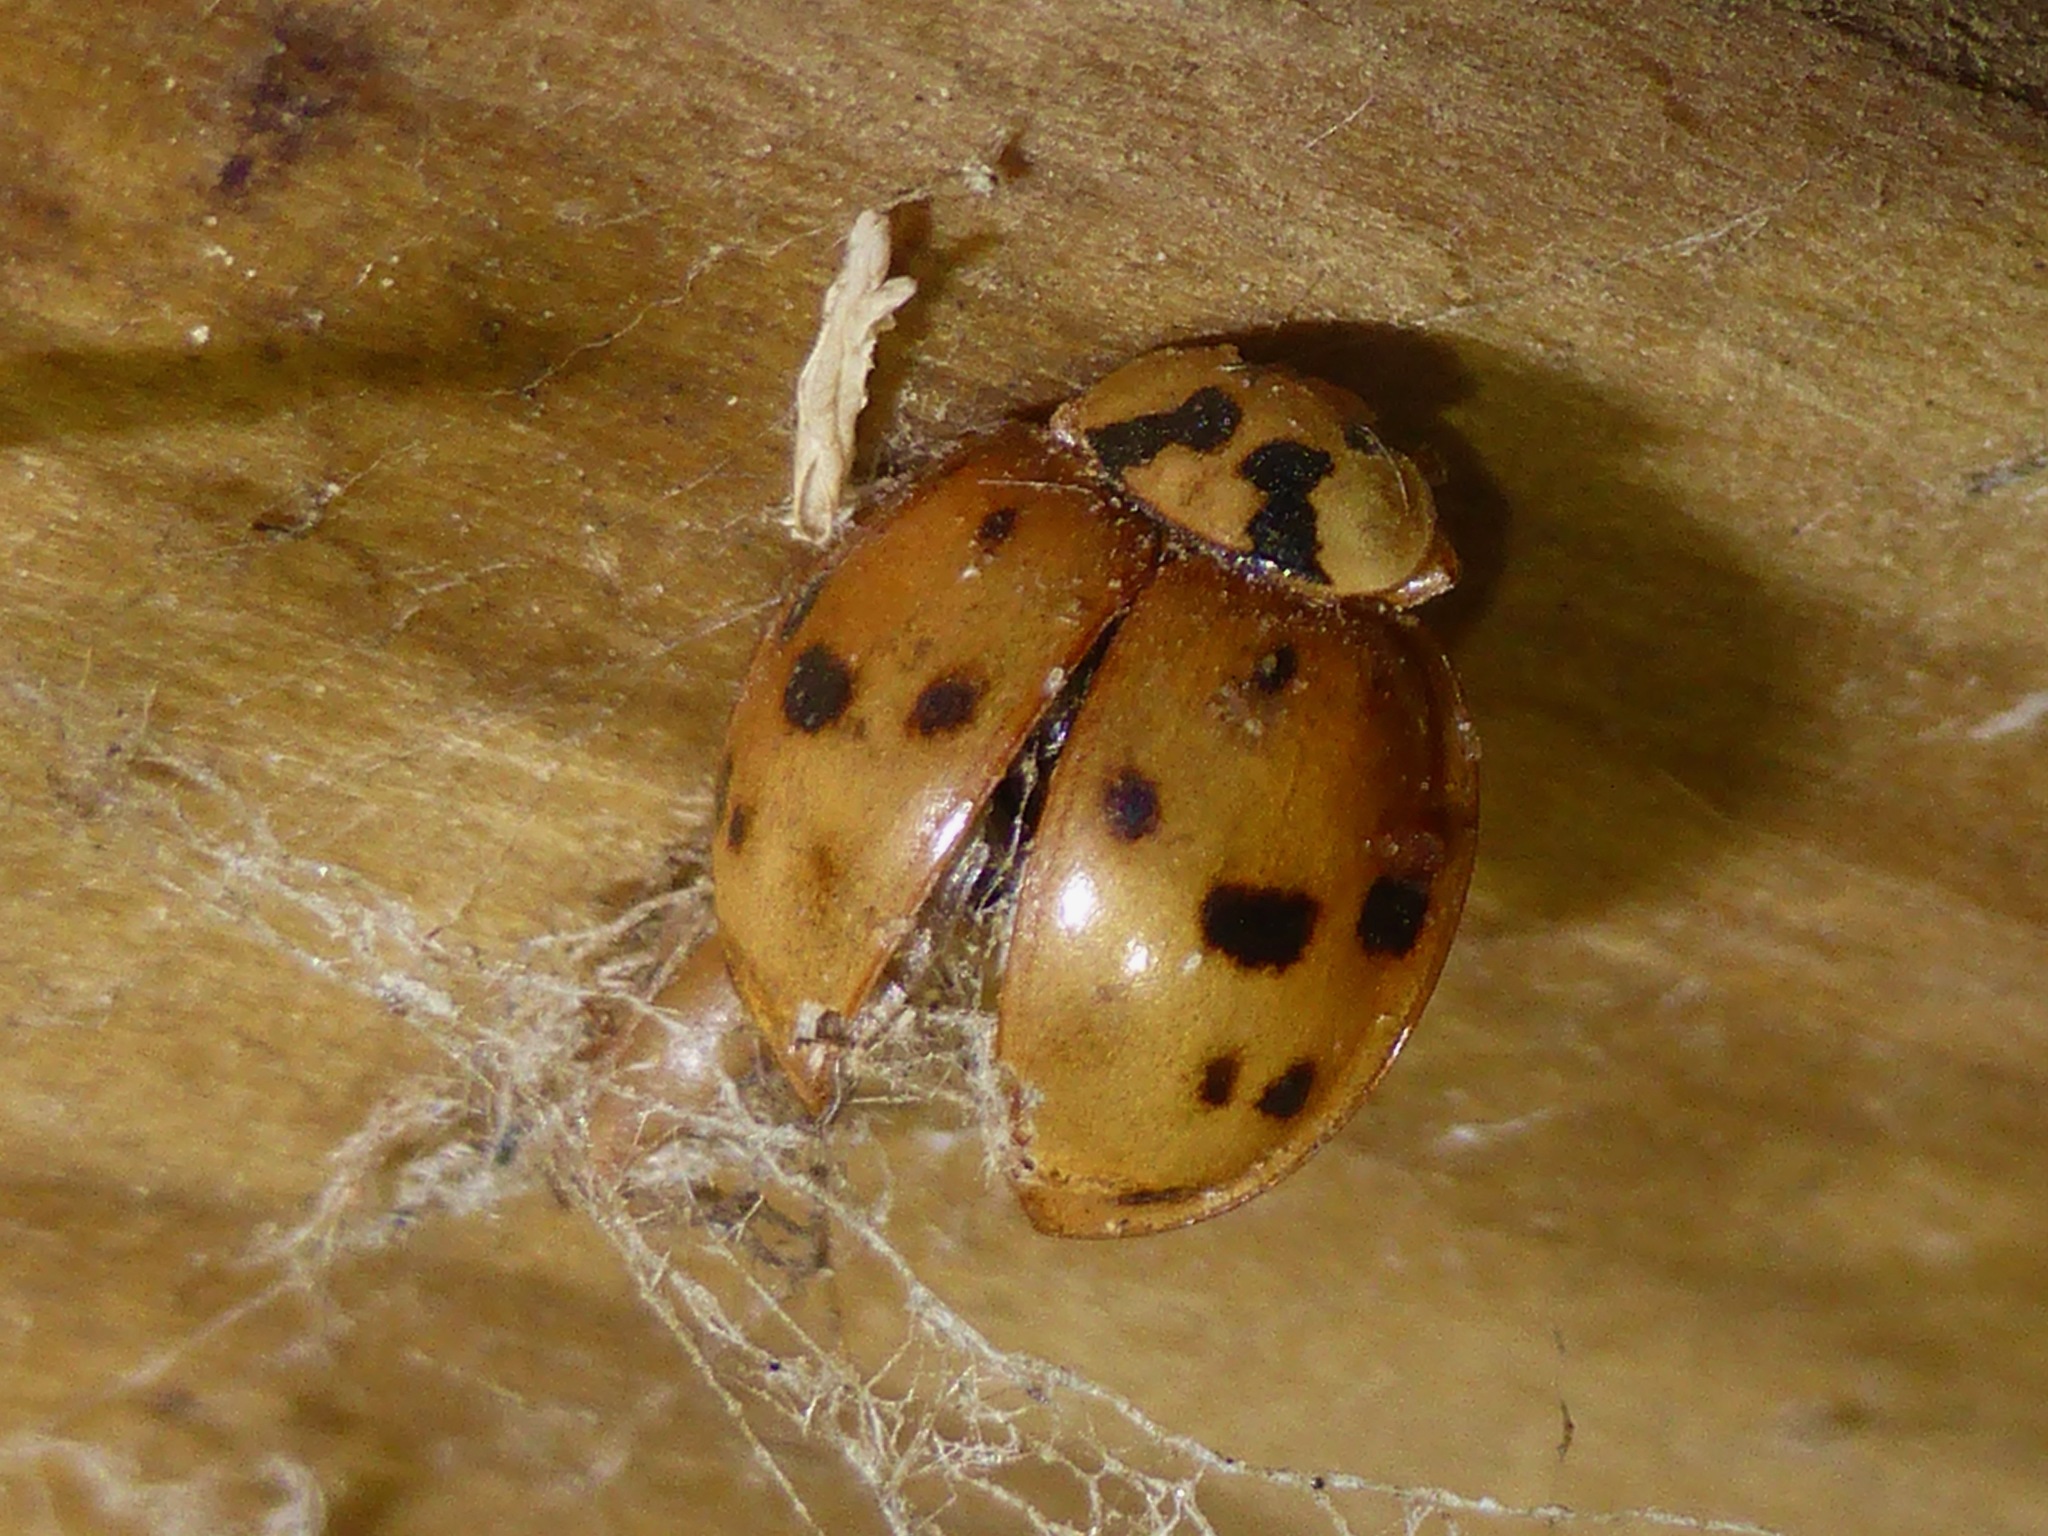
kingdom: Animalia
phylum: Arthropoda
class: Insecta
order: Coleoptera
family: Coccinellidae
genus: Harmonia
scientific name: Harmonia axyridis
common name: Harlequin ladybird
